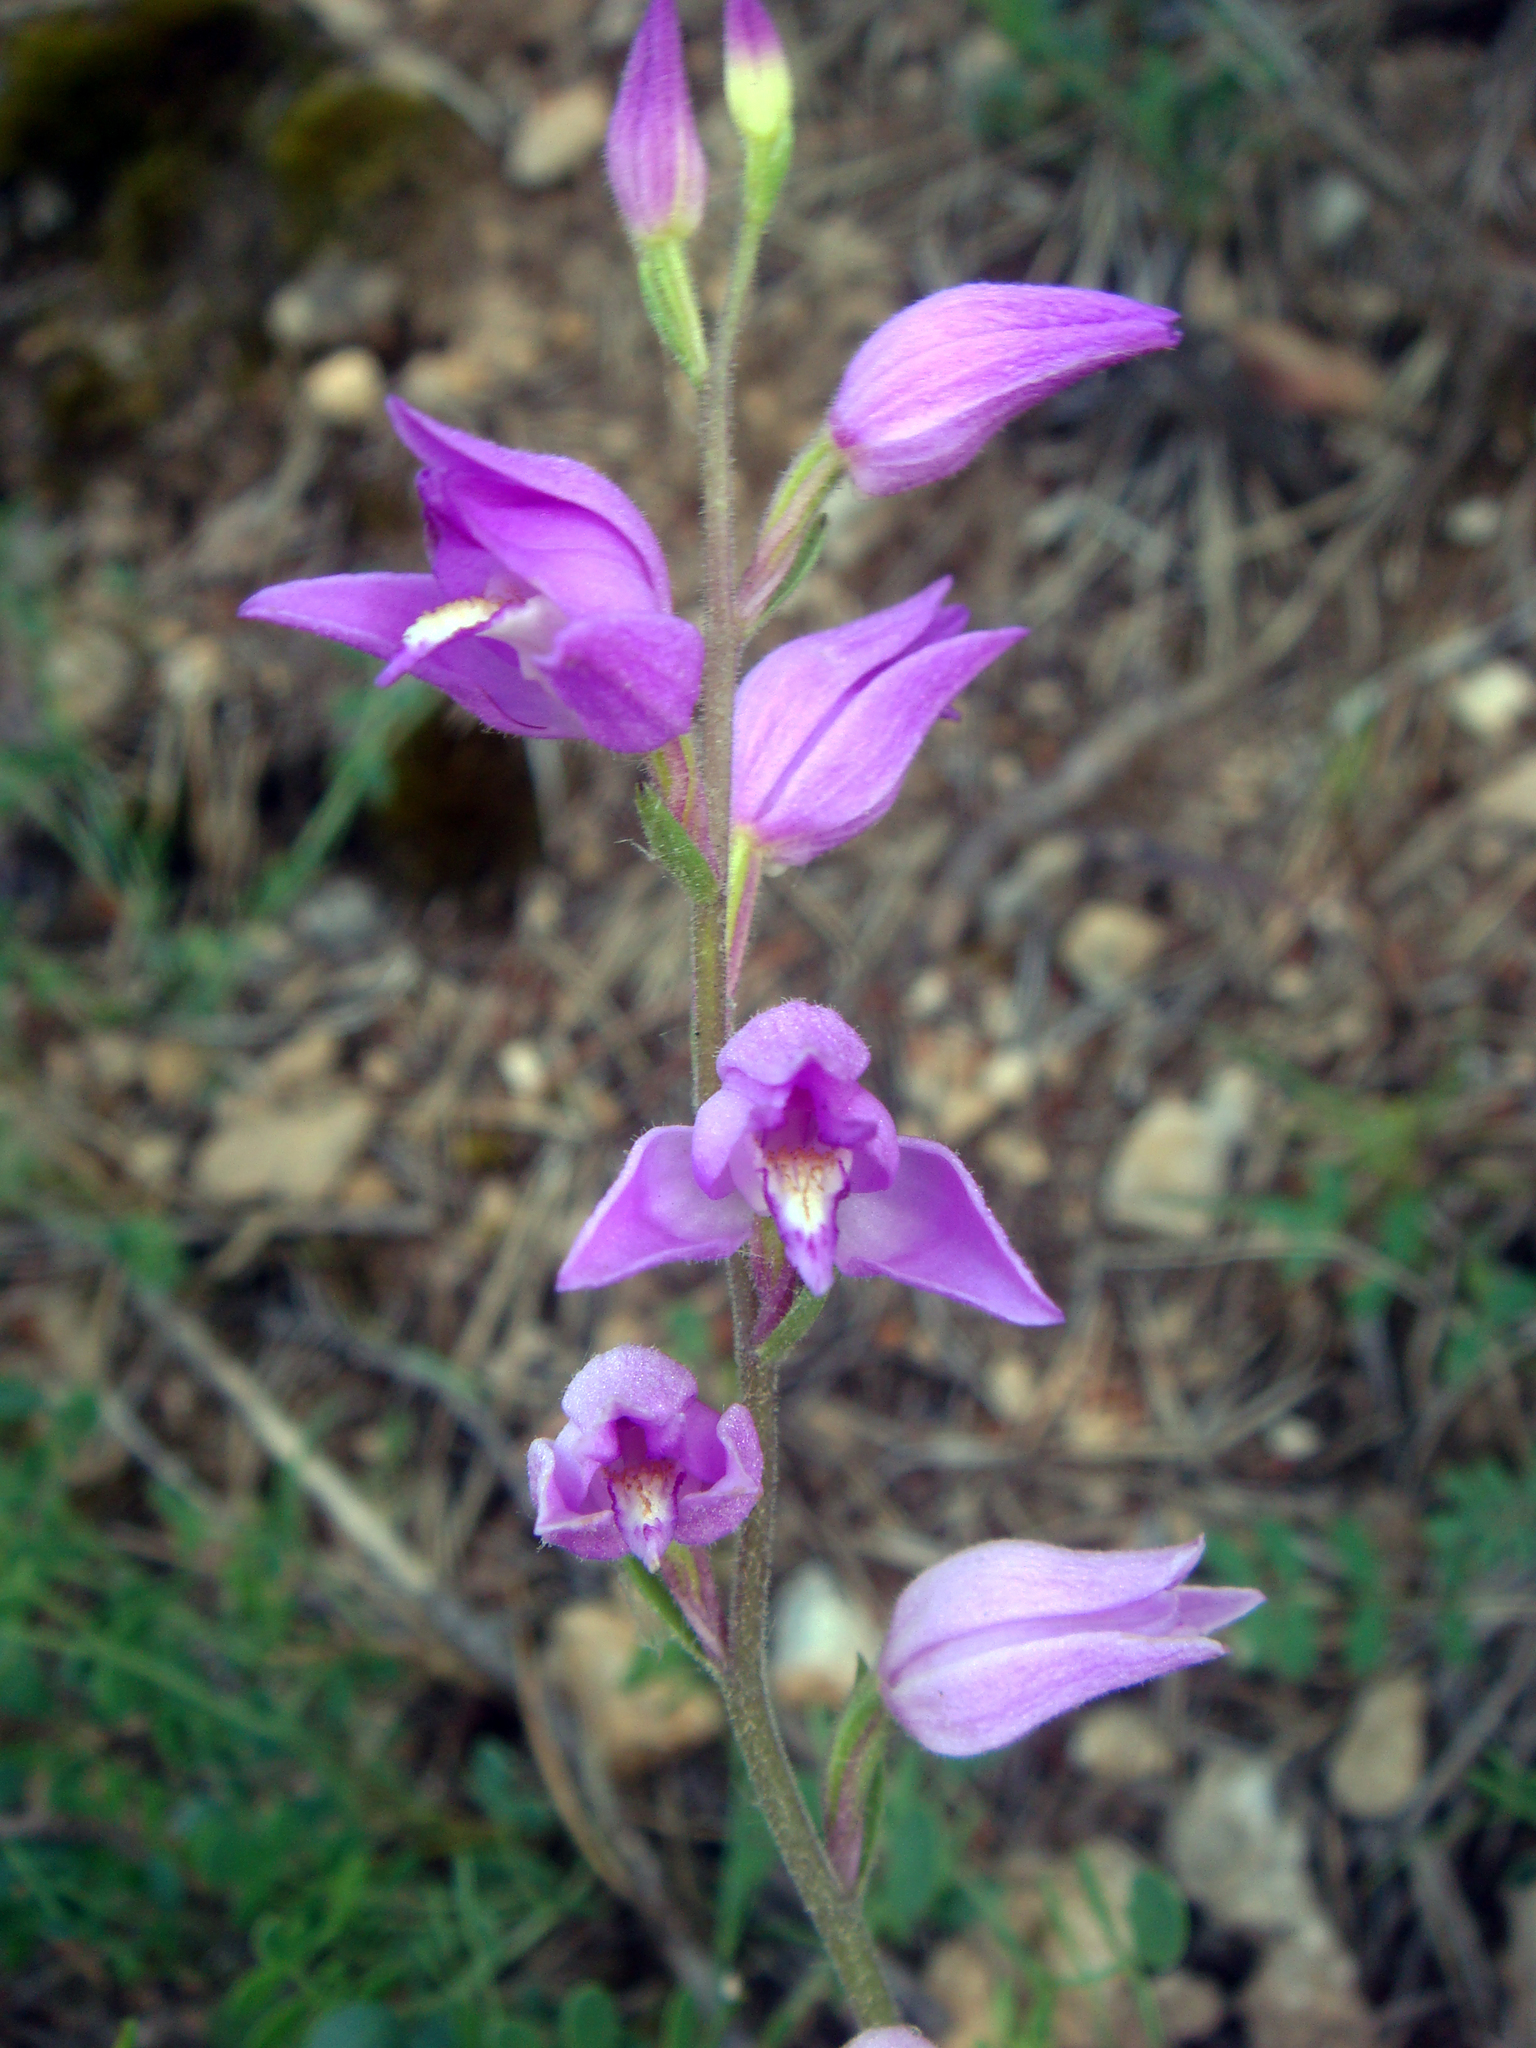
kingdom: Plantae
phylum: Tracheophyta
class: Liliopsida
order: Asparagales
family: Orchidaceae
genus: Cephalanthera
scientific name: Cephalanthera rubra
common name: Red helleborine
